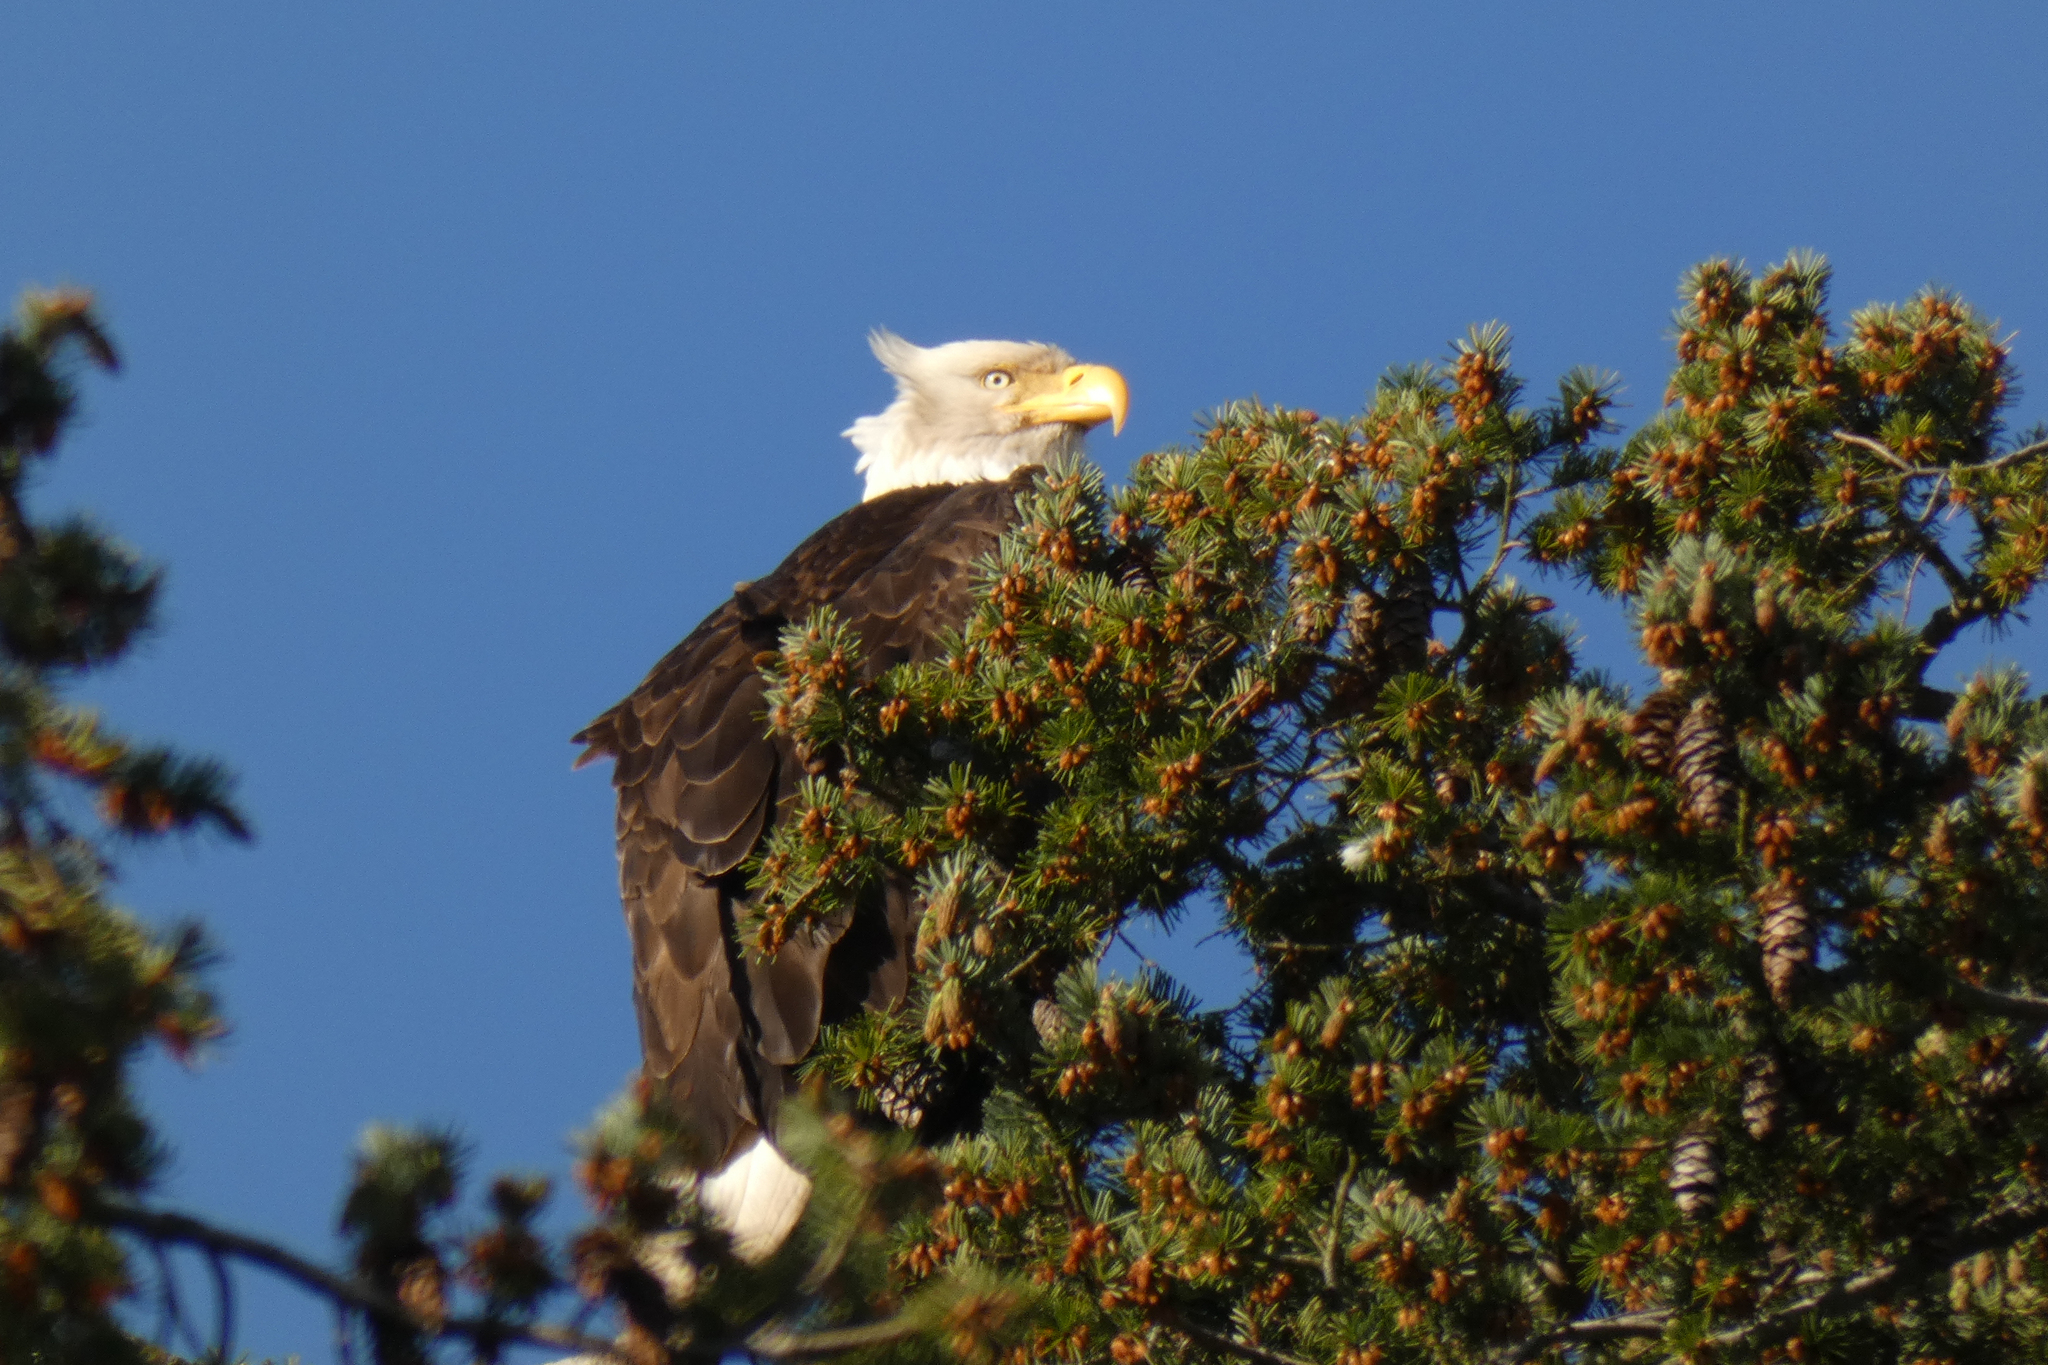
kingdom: Animalia
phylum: Chordata
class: Aves
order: Accipitriformes
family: Accipitridae
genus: Haliaeetus
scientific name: Haliaeetus leucocephalus
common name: Bald eagle
